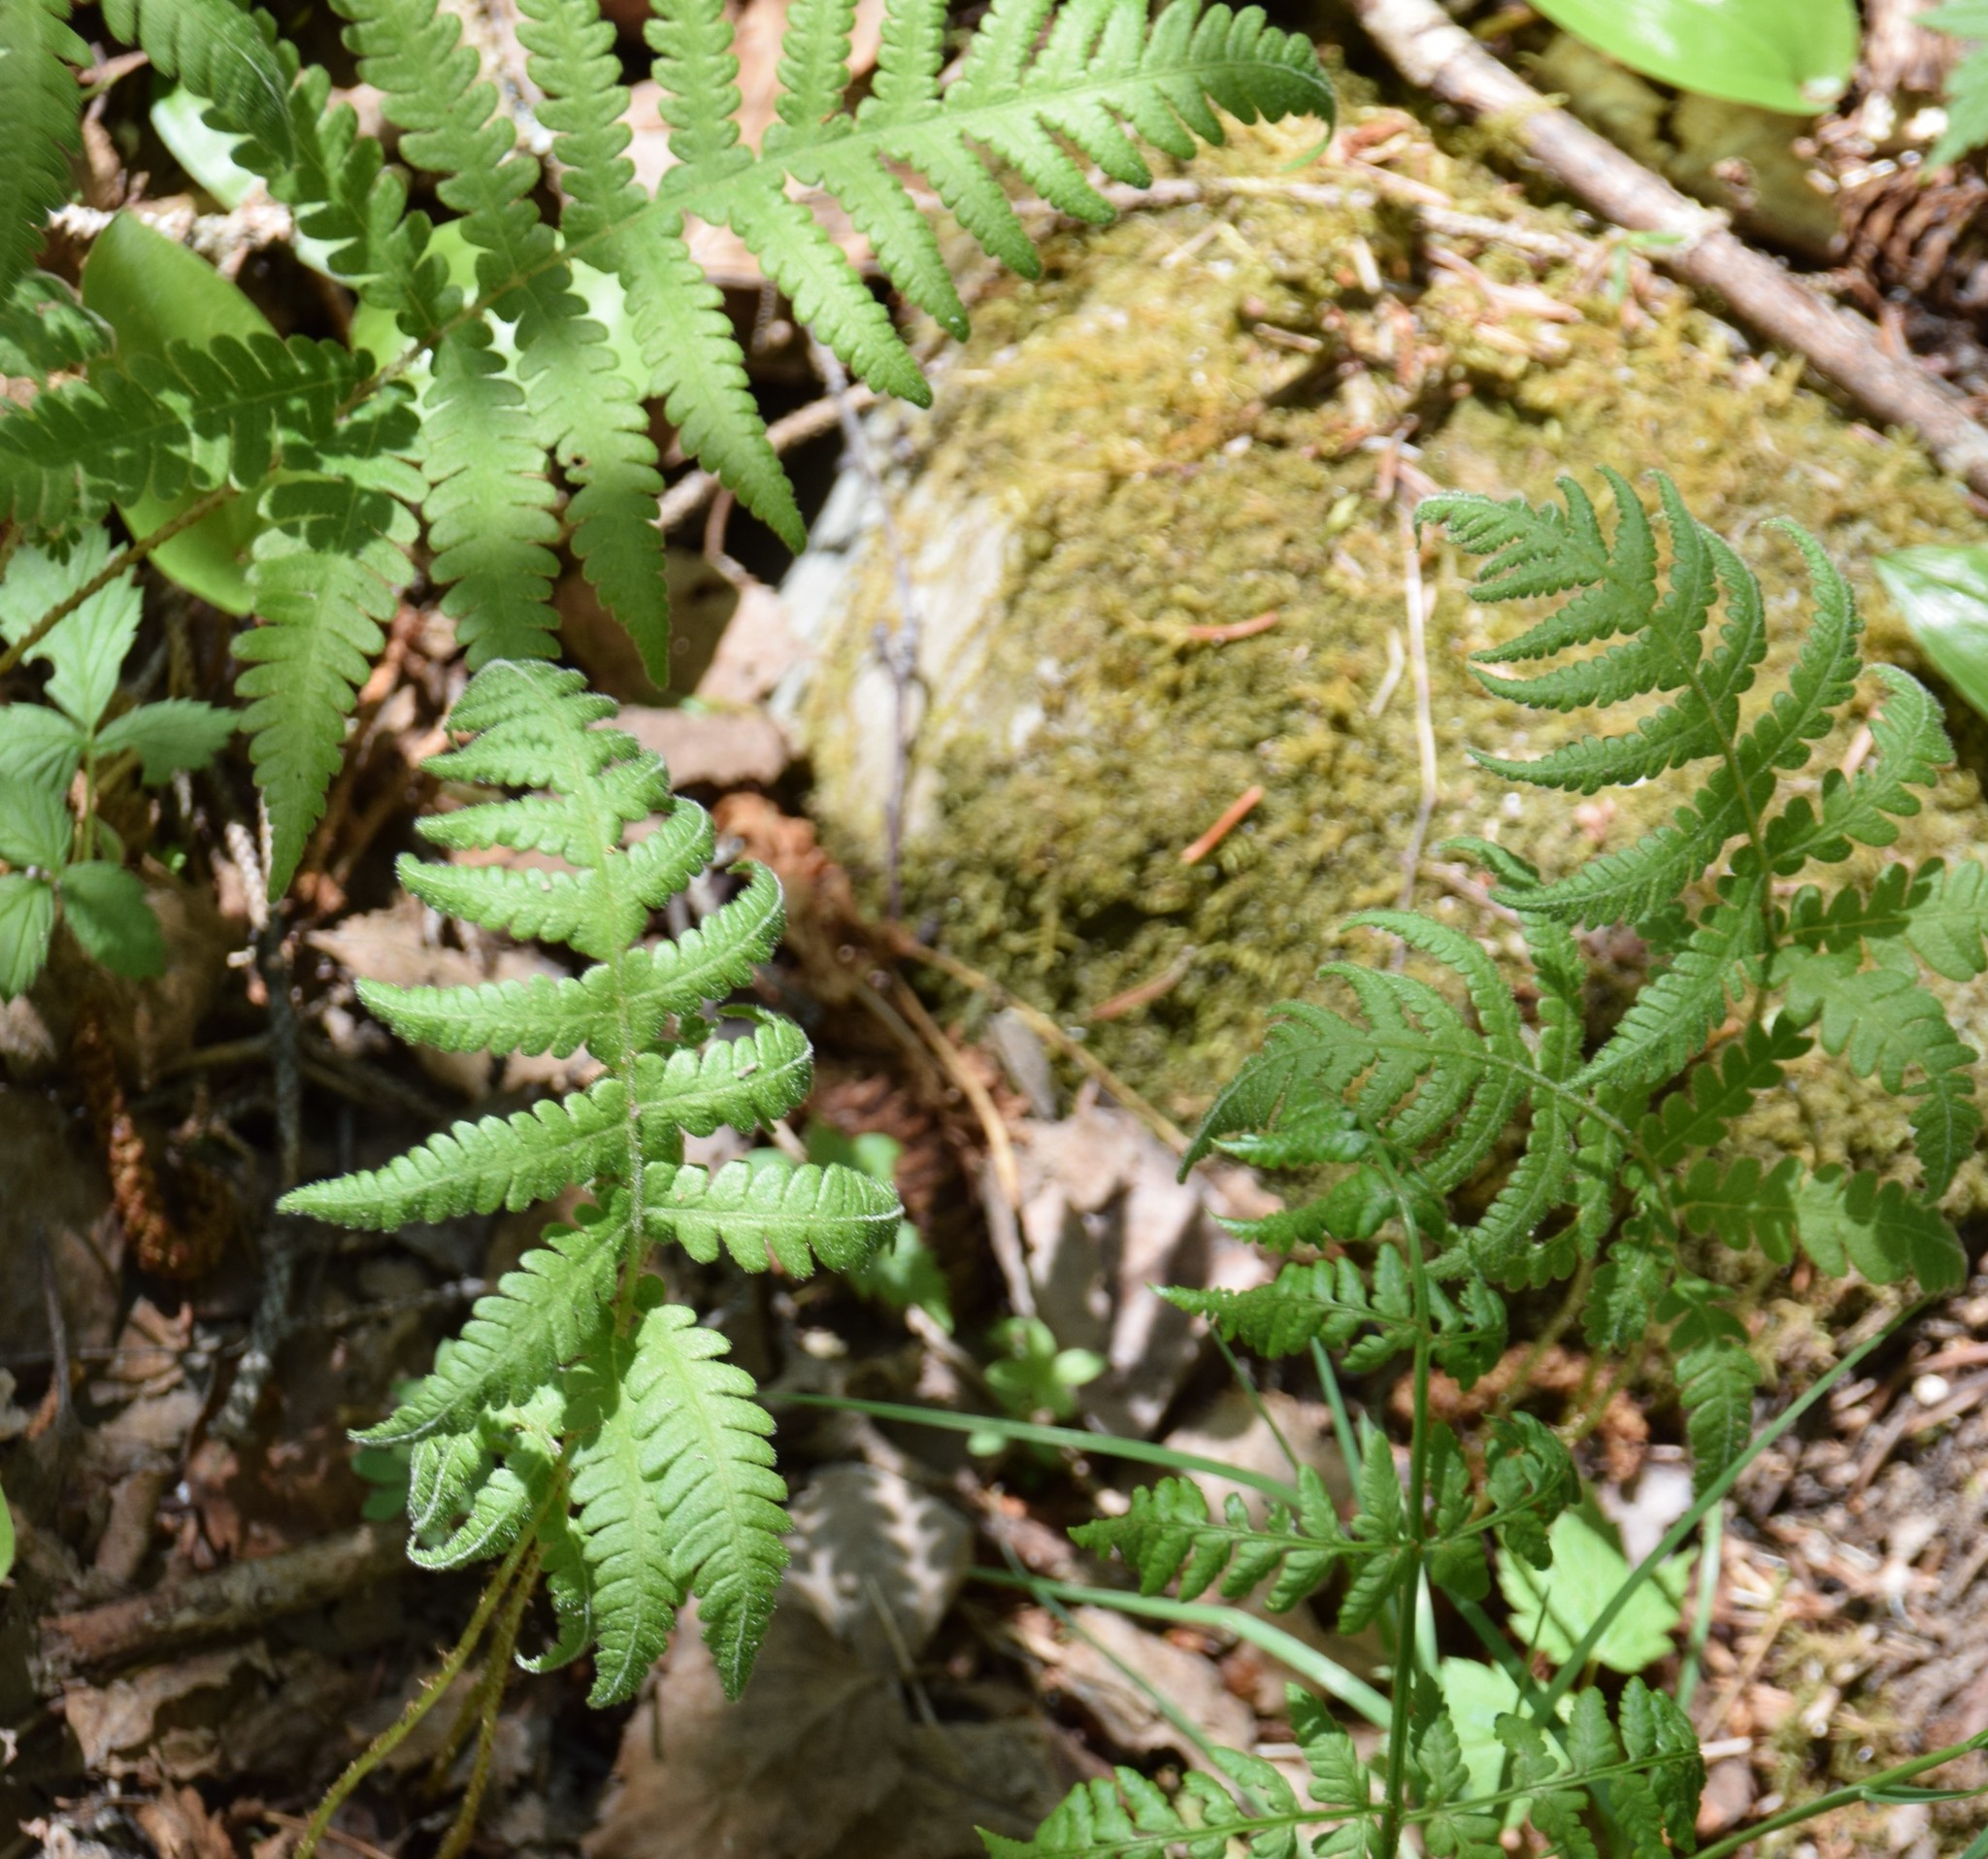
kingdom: Plantae
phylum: Tracheophyta
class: Polypodiopsida
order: Polypodiales
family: Thelypteridaceae
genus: Phegopteris
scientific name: Phegopteris connectilis
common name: Beech fern
